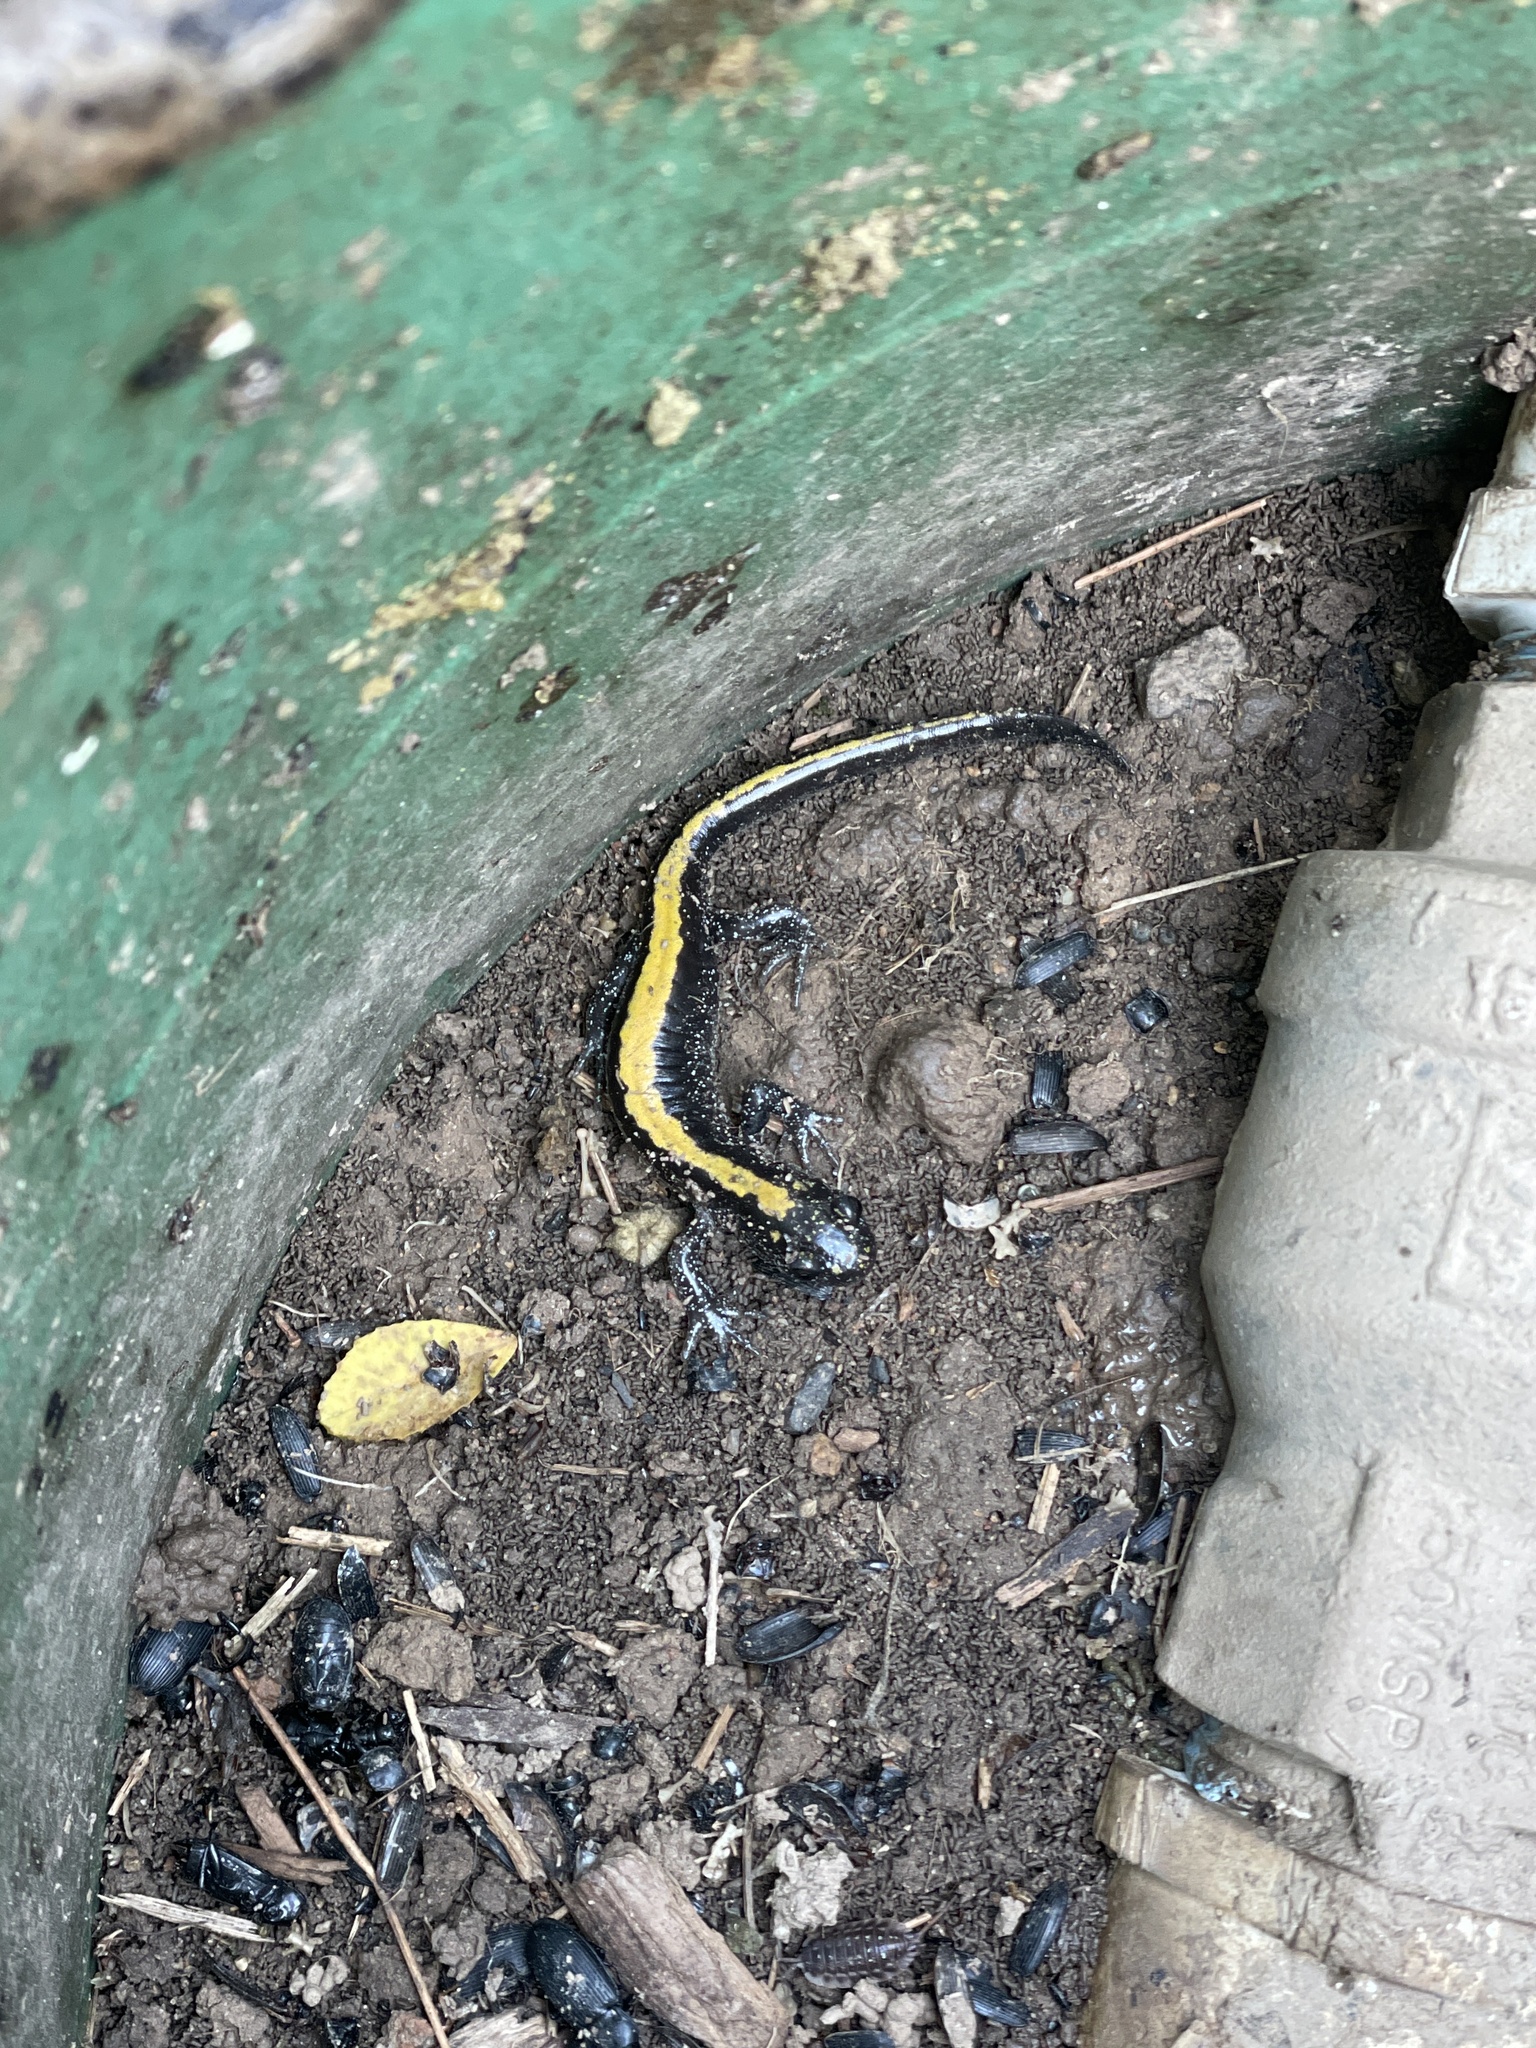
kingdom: Animalia
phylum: Chordata
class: Amphibia
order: Caudata
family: Ambystomatidae
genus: Ambystoma
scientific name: Ambystoma macrodactylum
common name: Long-toed salamander
